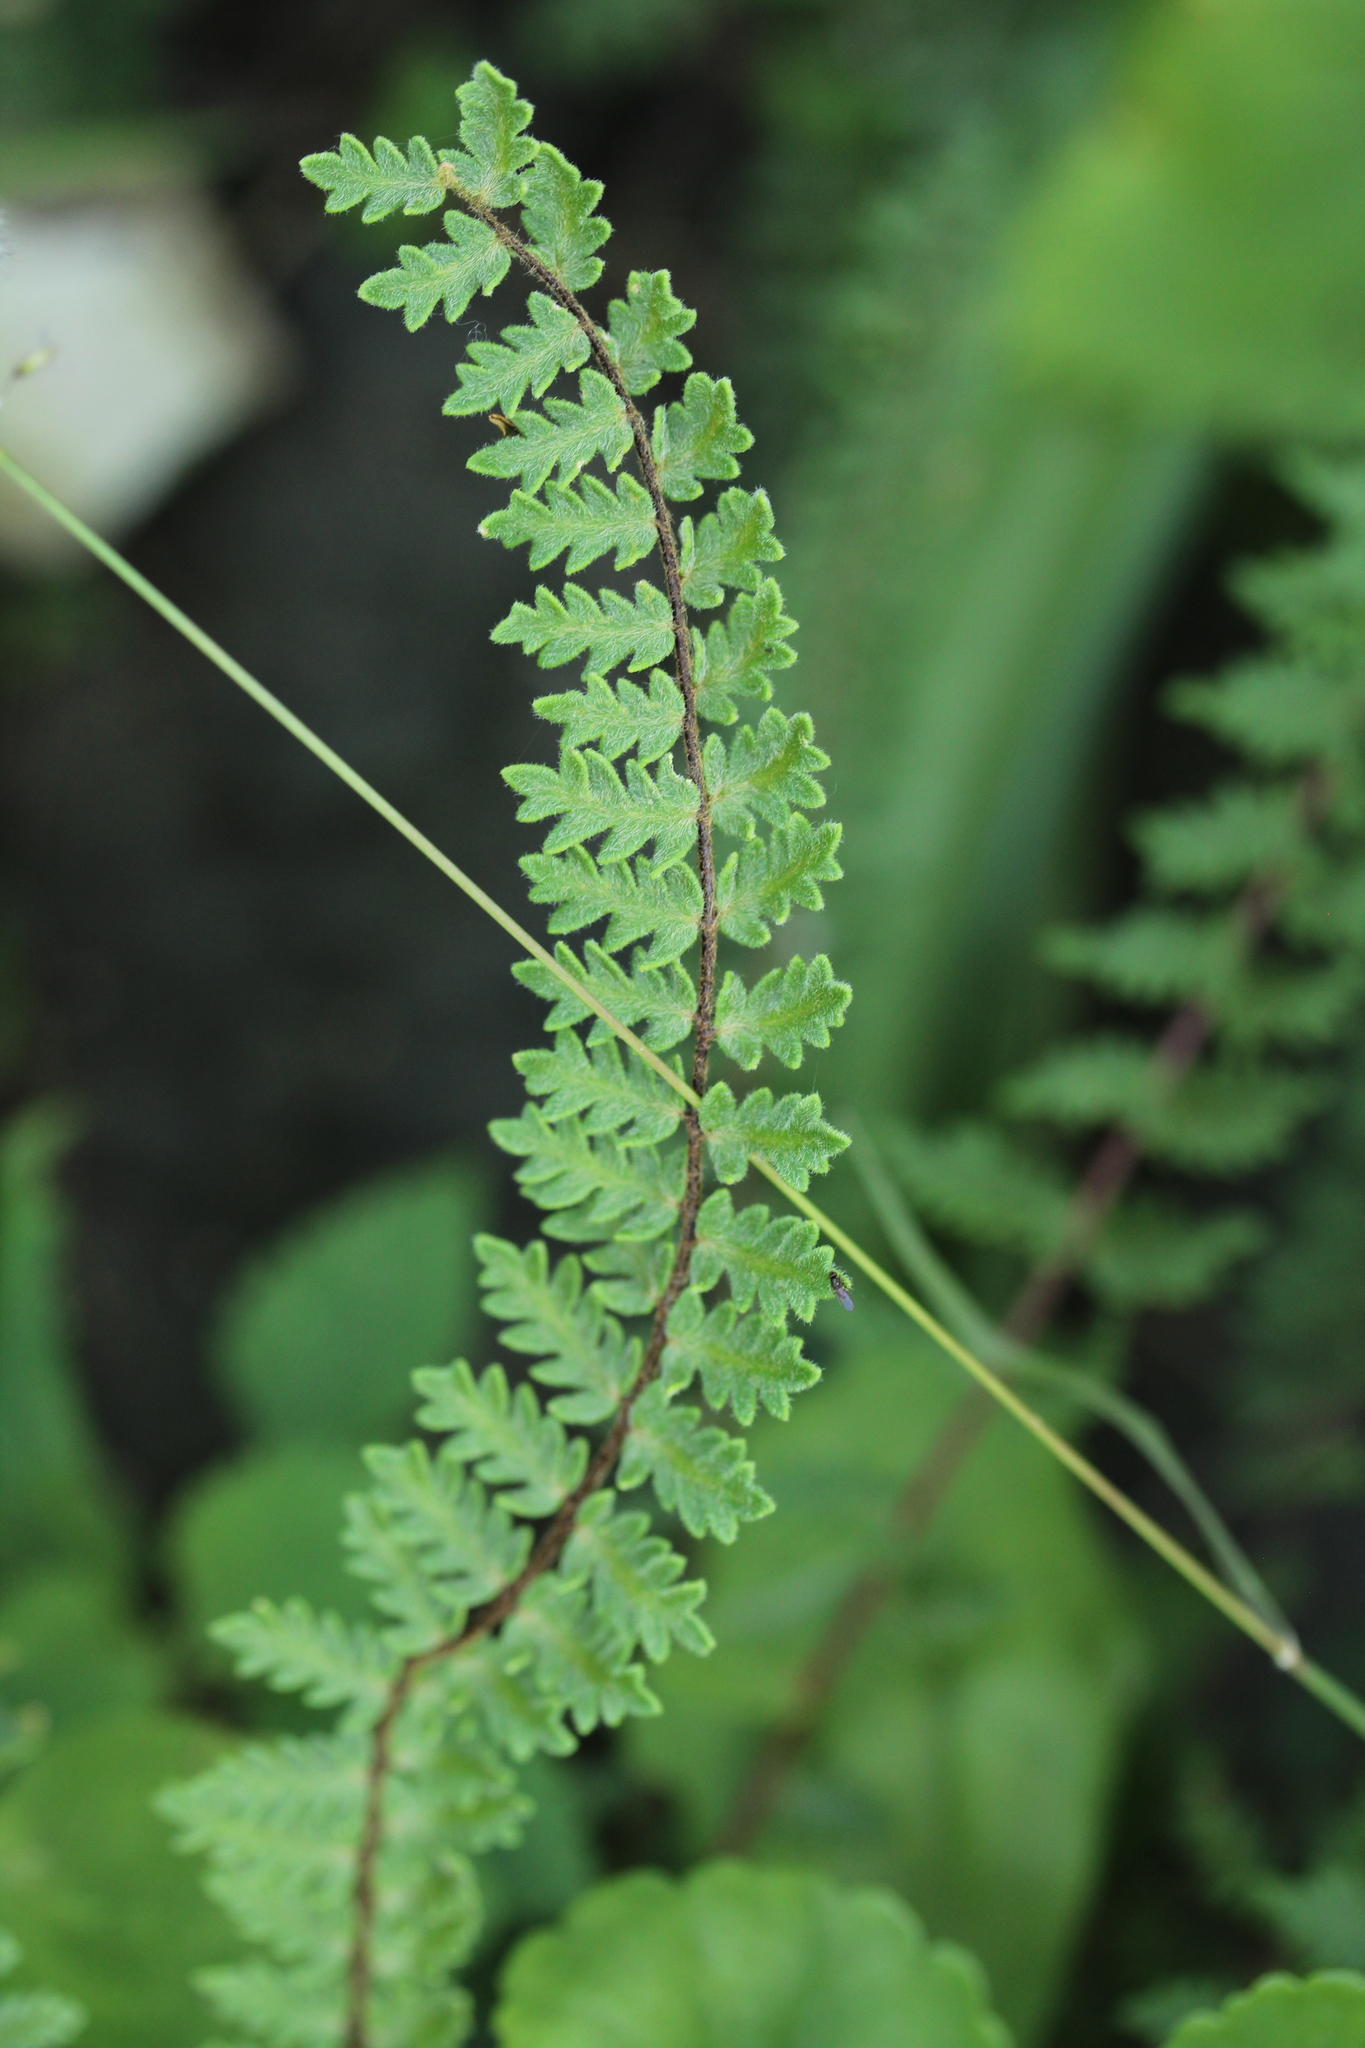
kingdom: Plantae
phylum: Tracheophyta
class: Polypodiopsida
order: Polypodiales
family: Pteridaceae
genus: Myriopteris
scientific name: Myriopteris aurea
